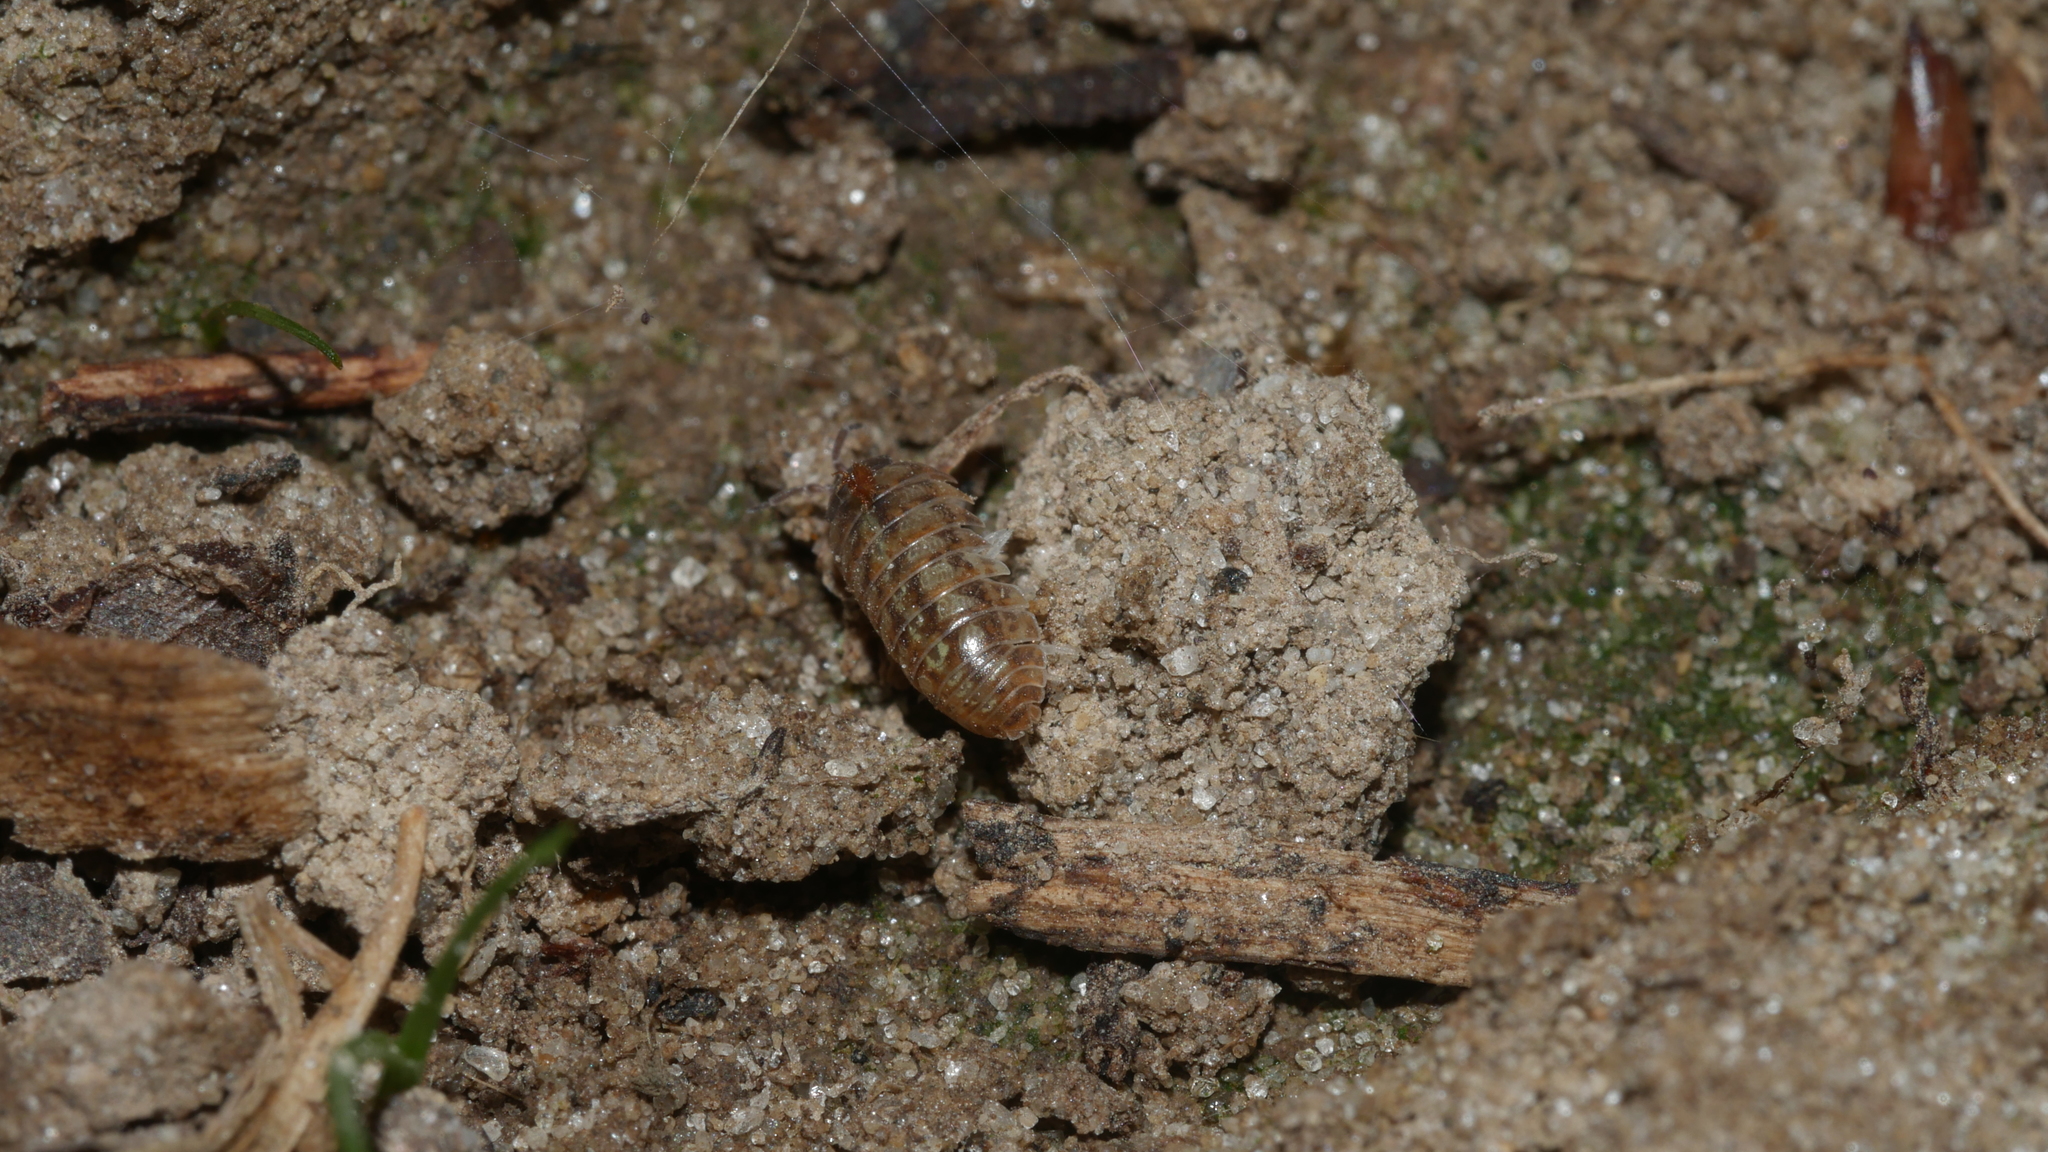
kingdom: Animalia
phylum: Arthropoda
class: Malacostraca
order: Isopoda
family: Armadillidiidae
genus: Armadillidium
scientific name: Armadillidium vulgare
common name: Common pill woodlouse
